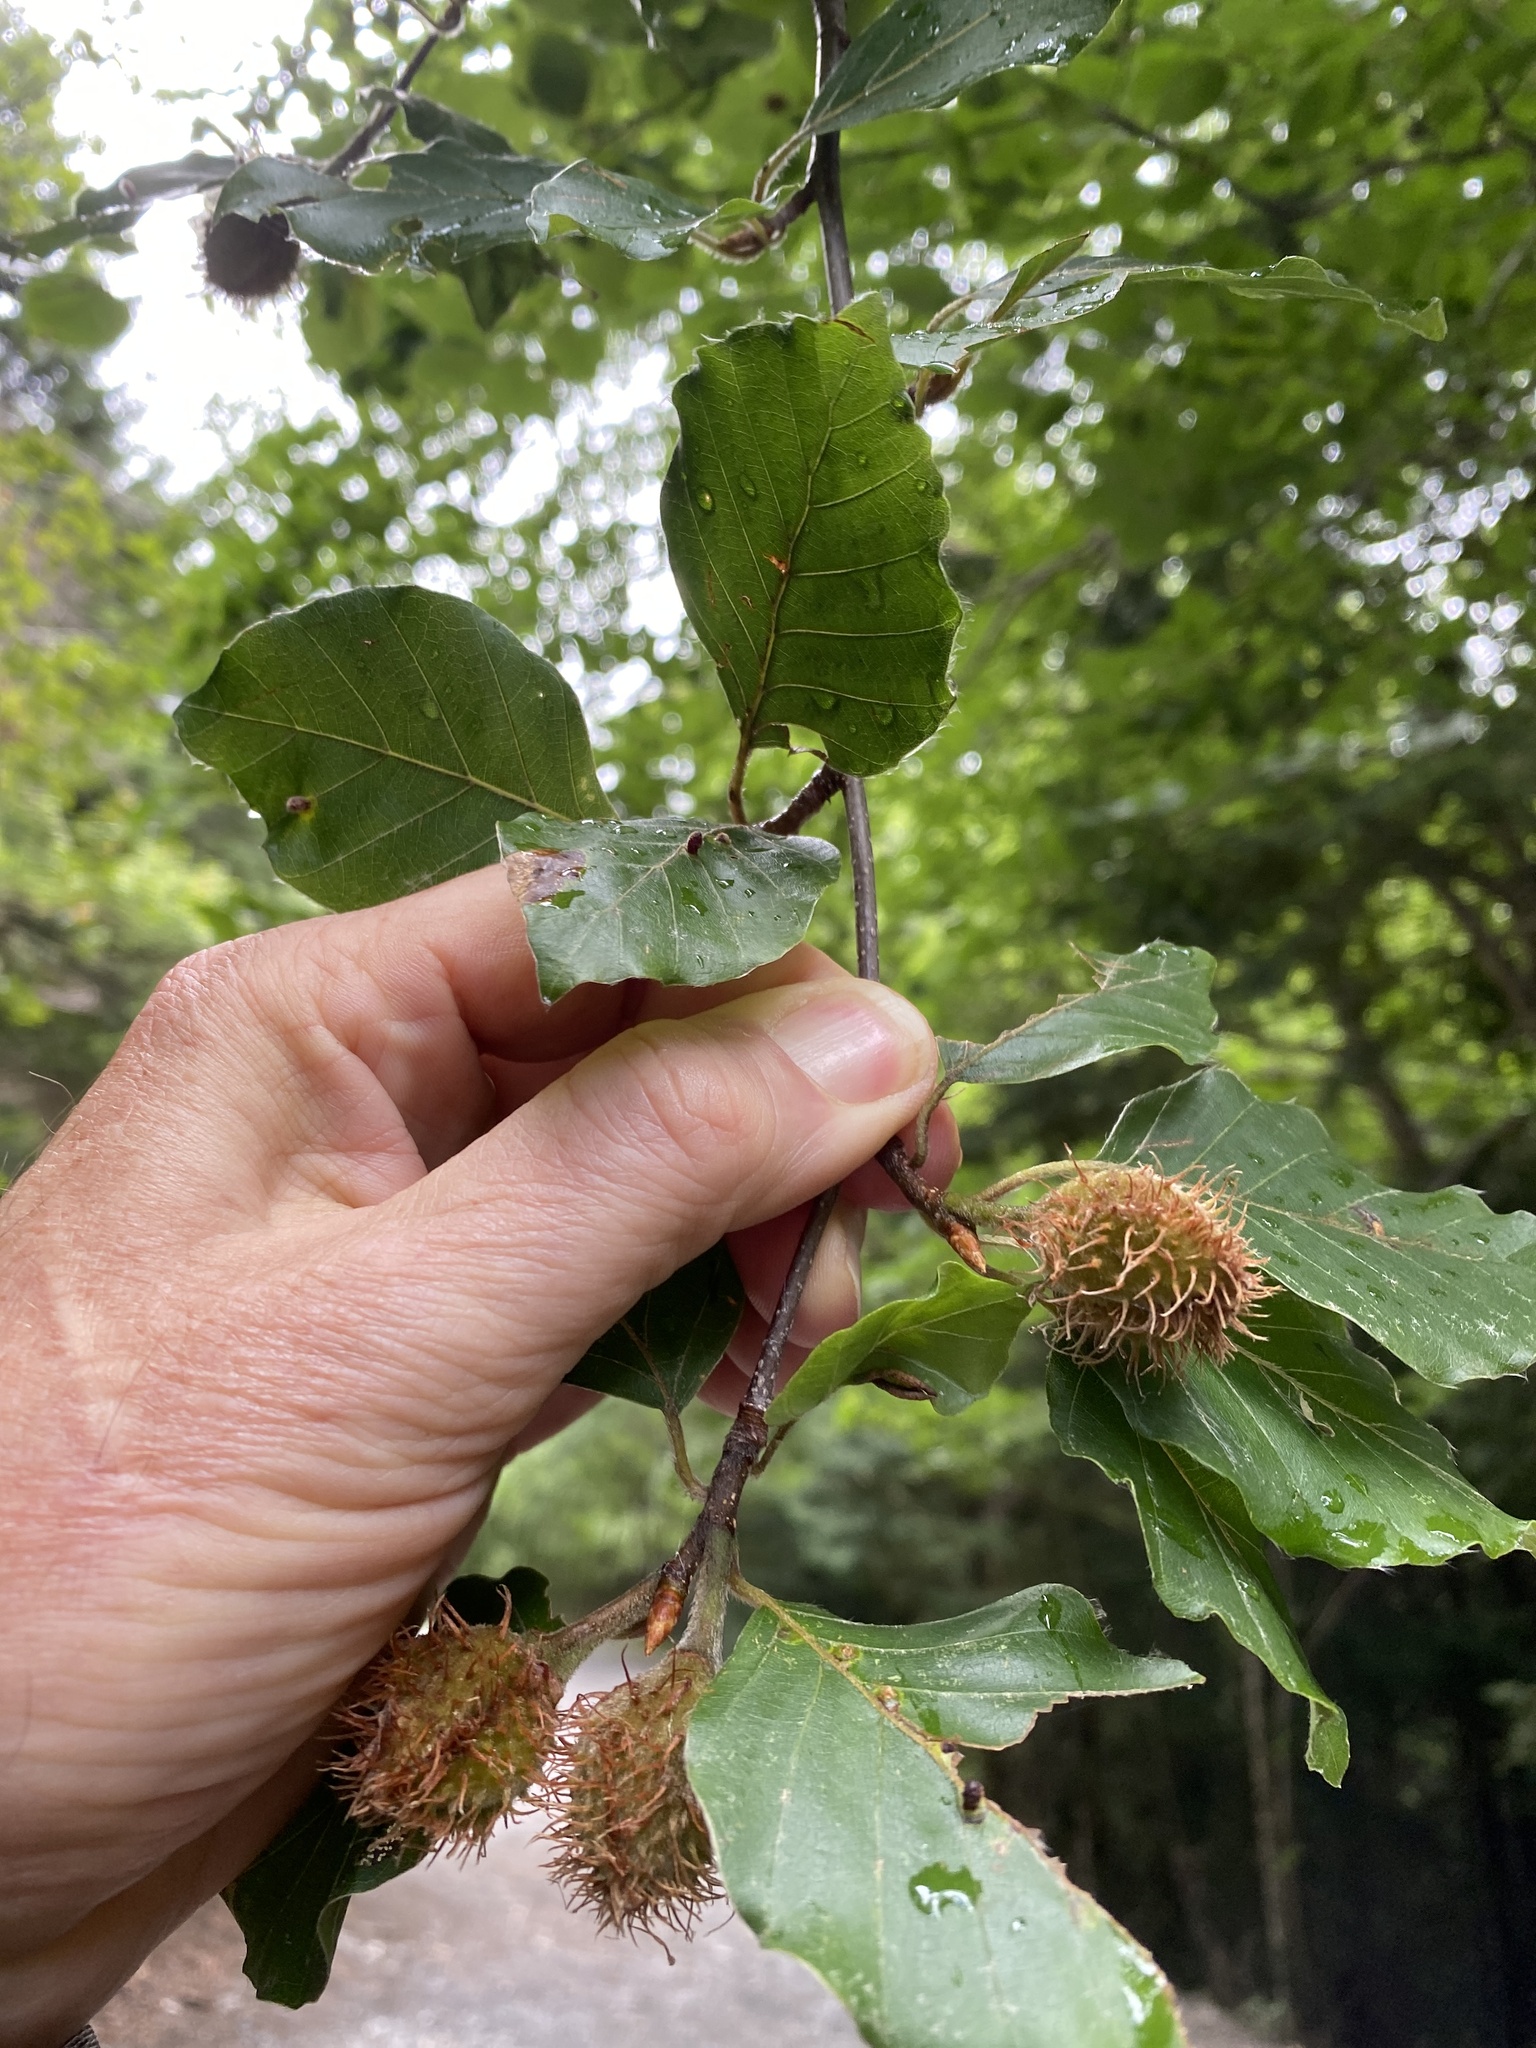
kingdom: Plantae
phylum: Tracheophyta
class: Magnoliopsida
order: Fagales
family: Fagaceae
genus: Fagus
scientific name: Fagus sylvatica
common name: Beech
